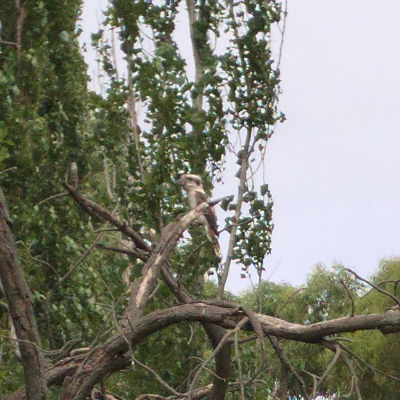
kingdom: Animalia
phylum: Chordata
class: Aves
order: Coraciiformes
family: Alcedinidae
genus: Dacelo
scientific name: Dacelo novaeguineae
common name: Laughing kookaburra
